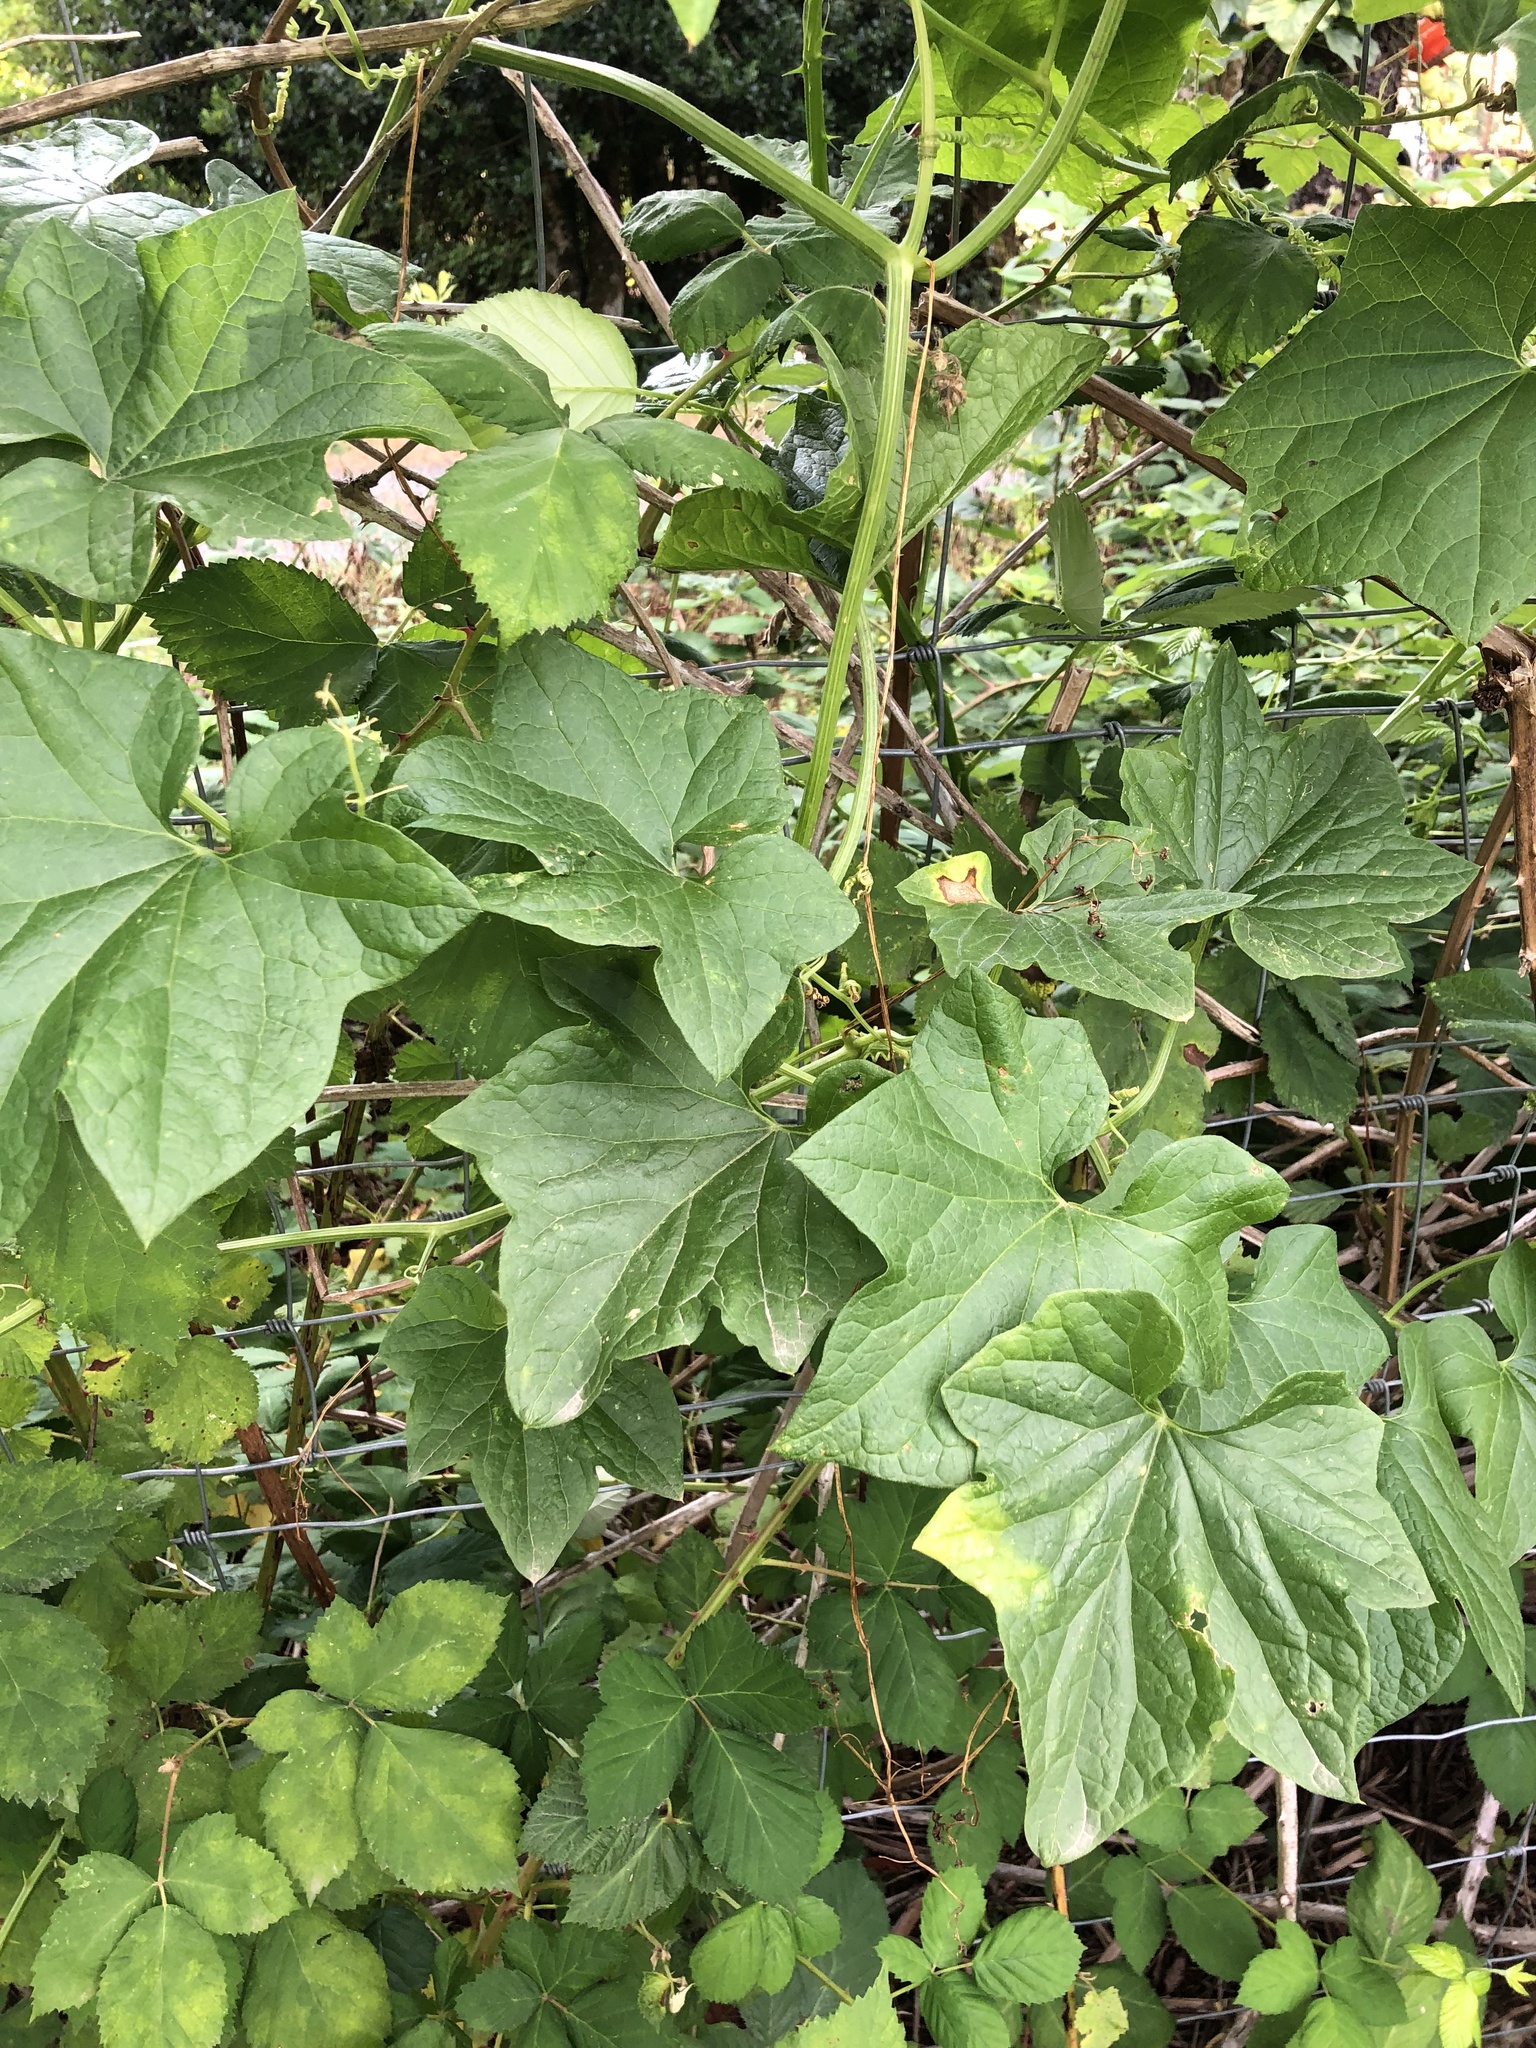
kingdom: Plantae
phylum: Tracheophyta
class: Magnoliopsida
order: Cucurbitales
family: Cucurbitaceae
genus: Marah
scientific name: Marah oregana
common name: Coastal manroot
